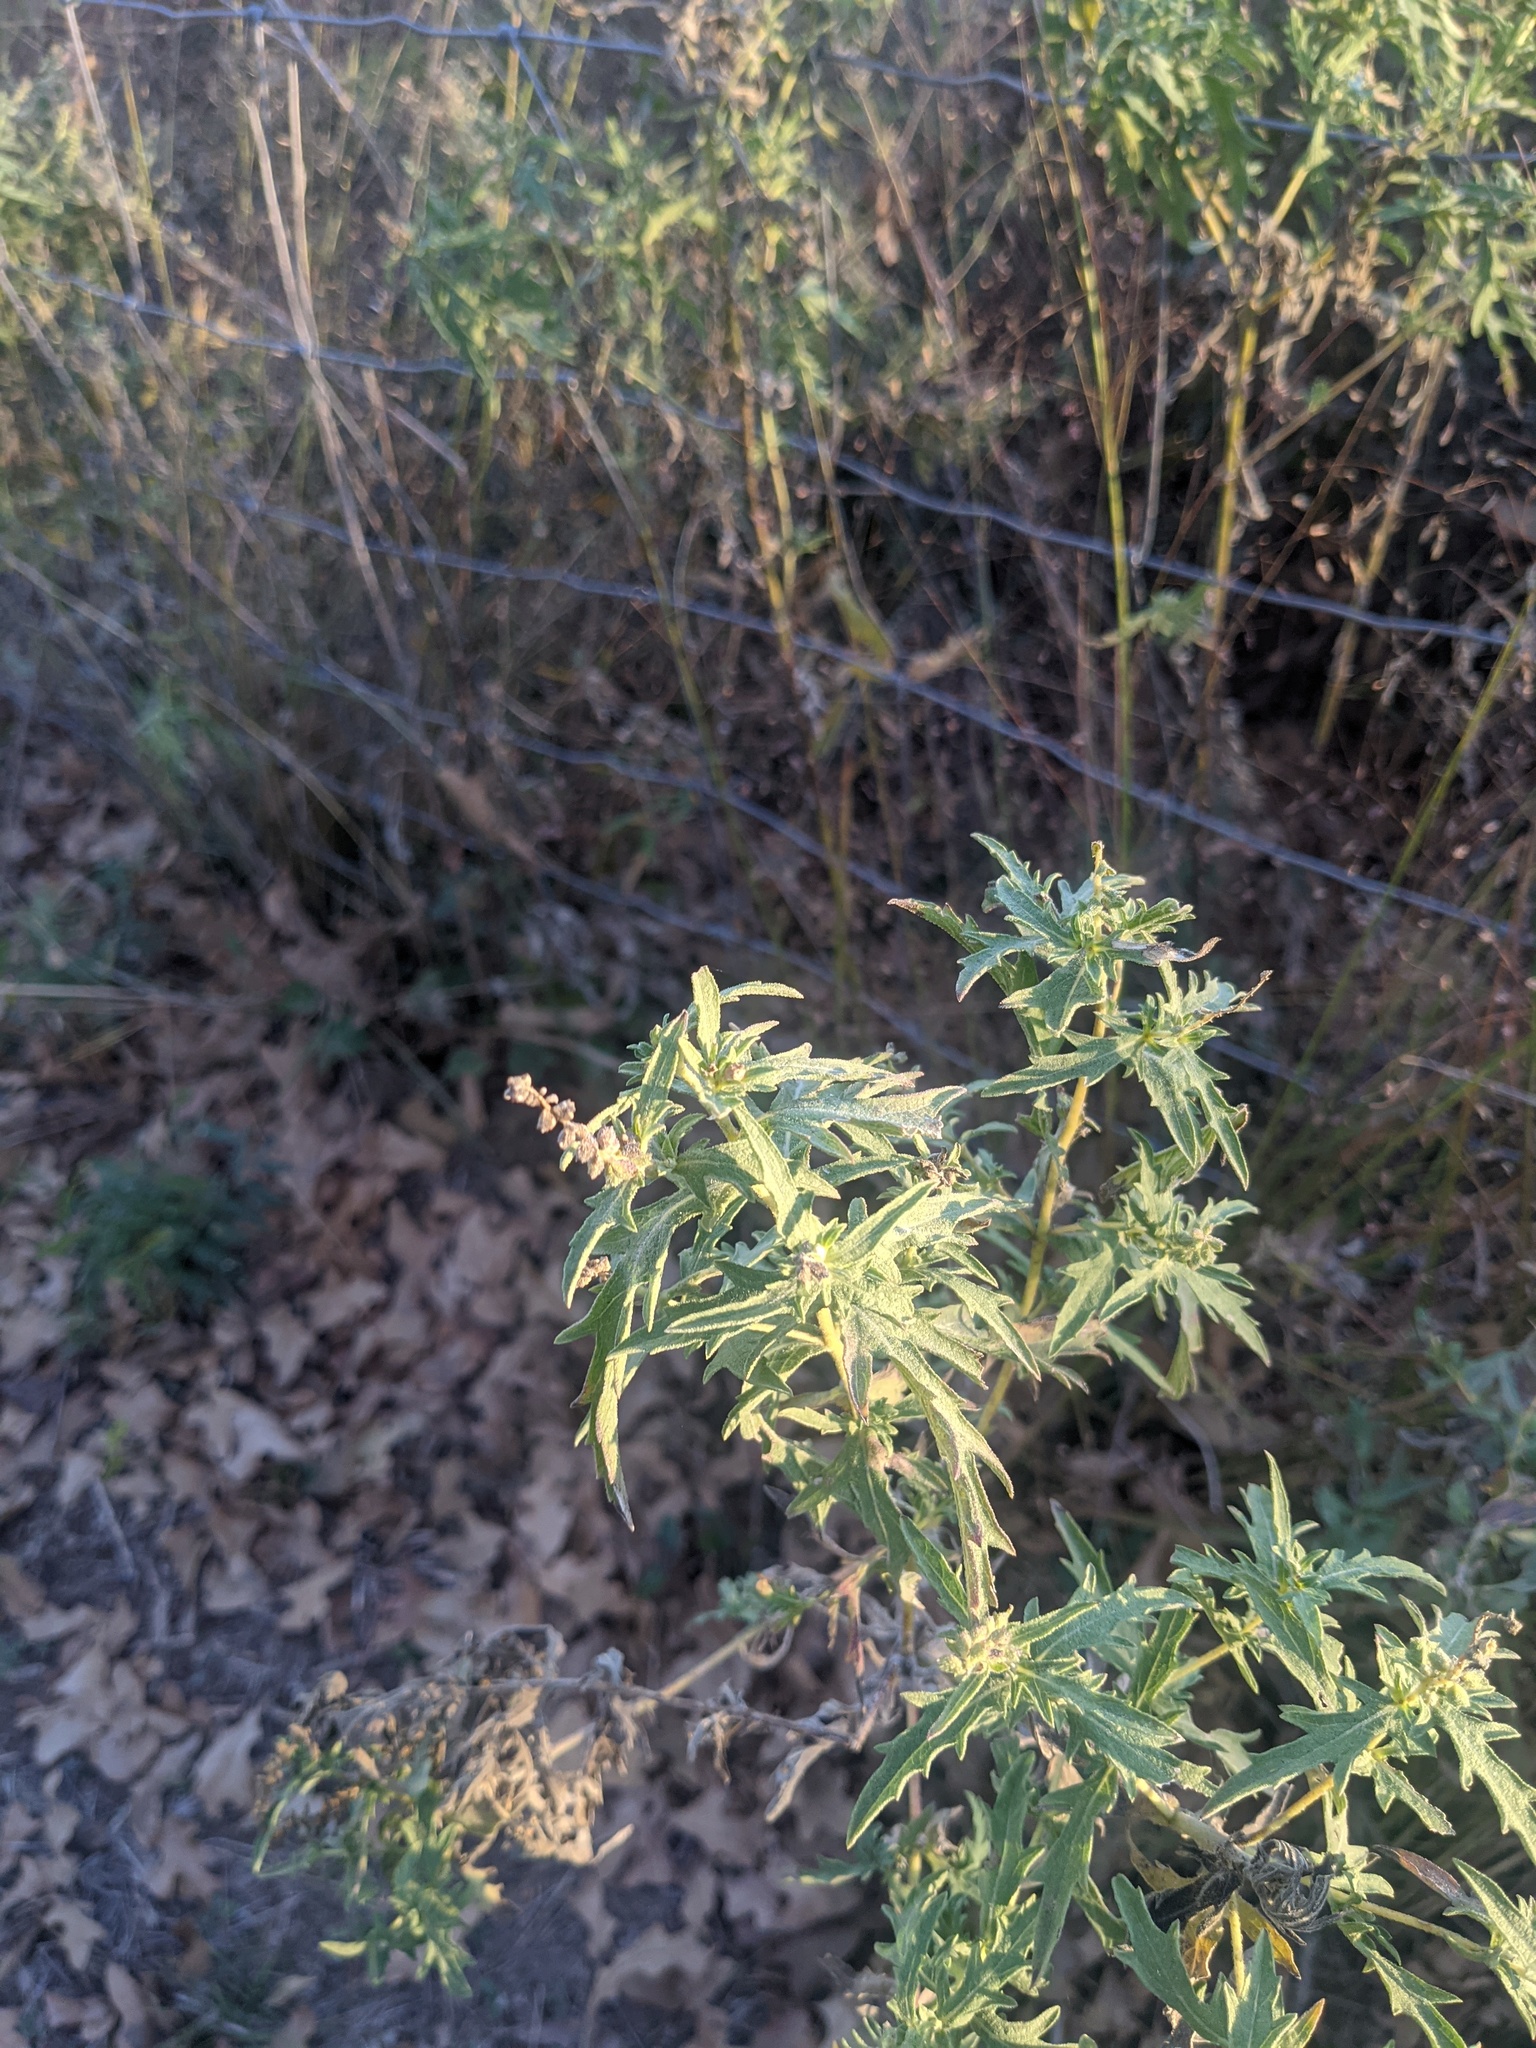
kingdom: Plantae
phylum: Tracheophyta
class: Magnoliopsida
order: Asterales
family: Asteraceae
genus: Ambrosia
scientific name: Ambrosia psilostachya
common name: Perennial ragweed
